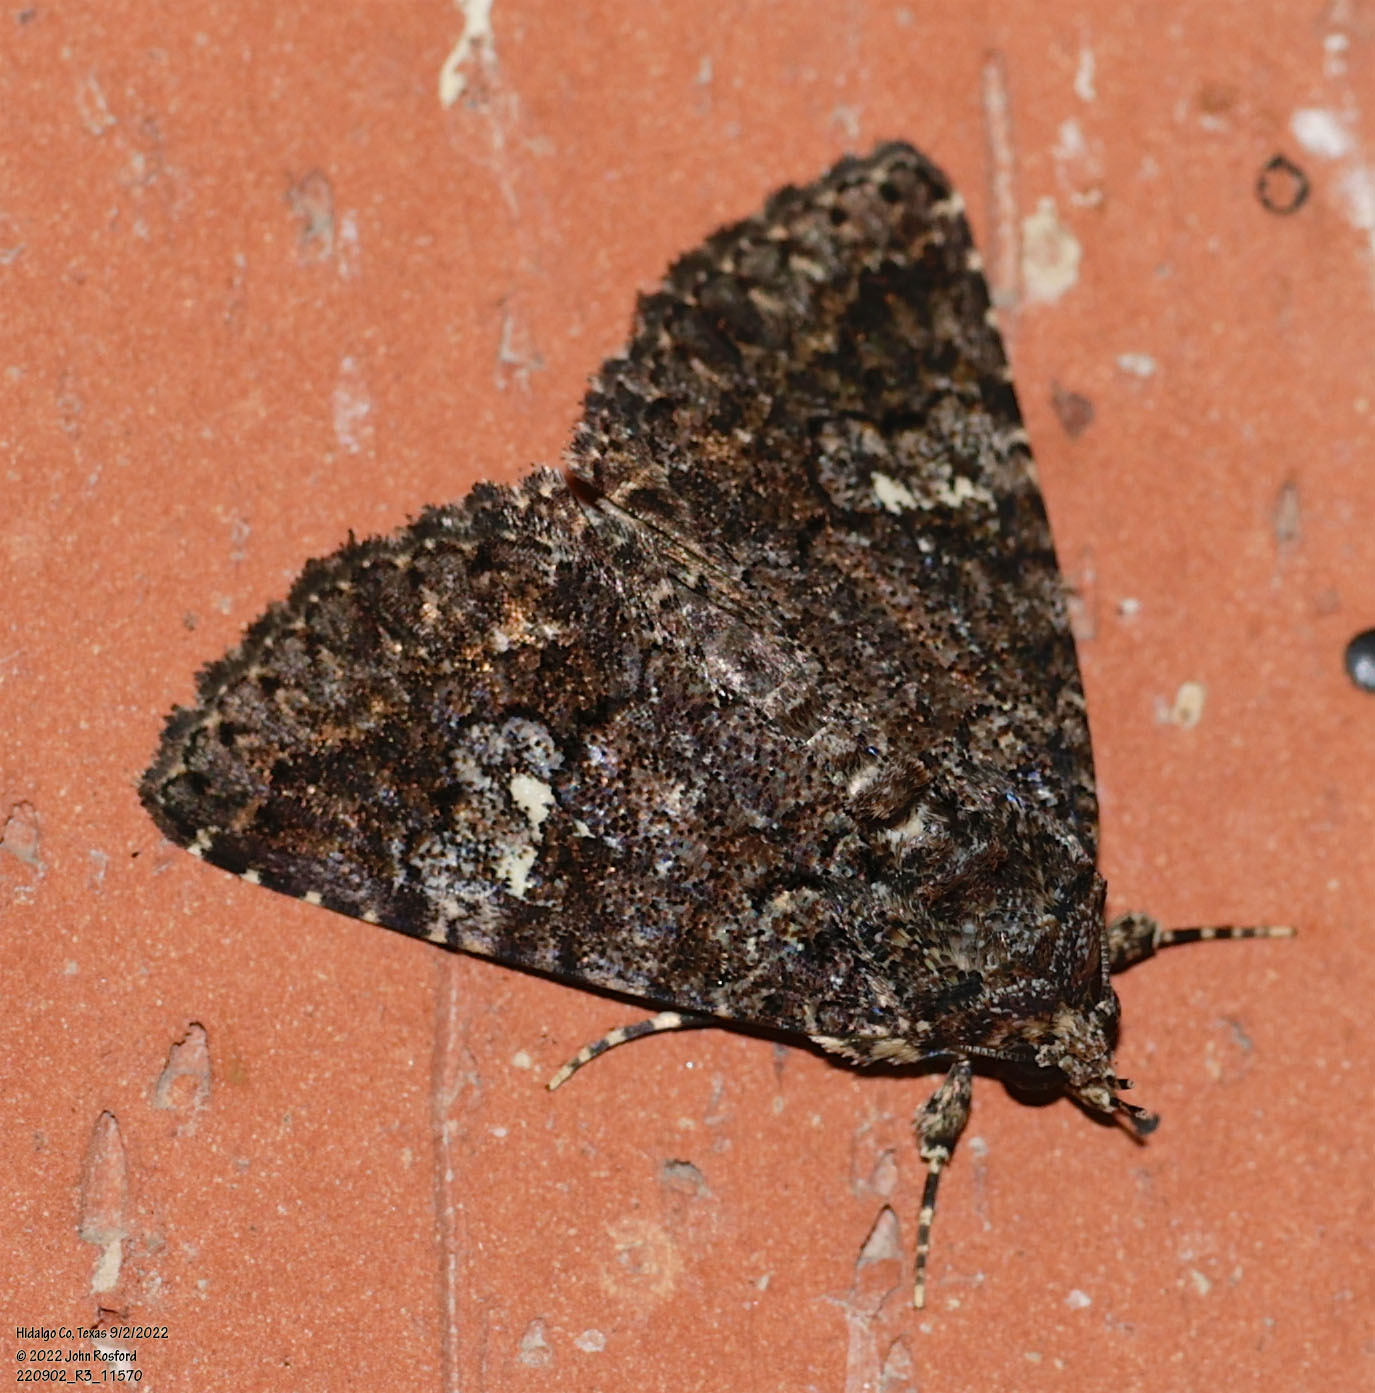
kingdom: Animalia
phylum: Arthropoda
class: Insecta
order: Lepidoptera
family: Erebidae
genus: Coxina
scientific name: Coxina cinctipalpis
